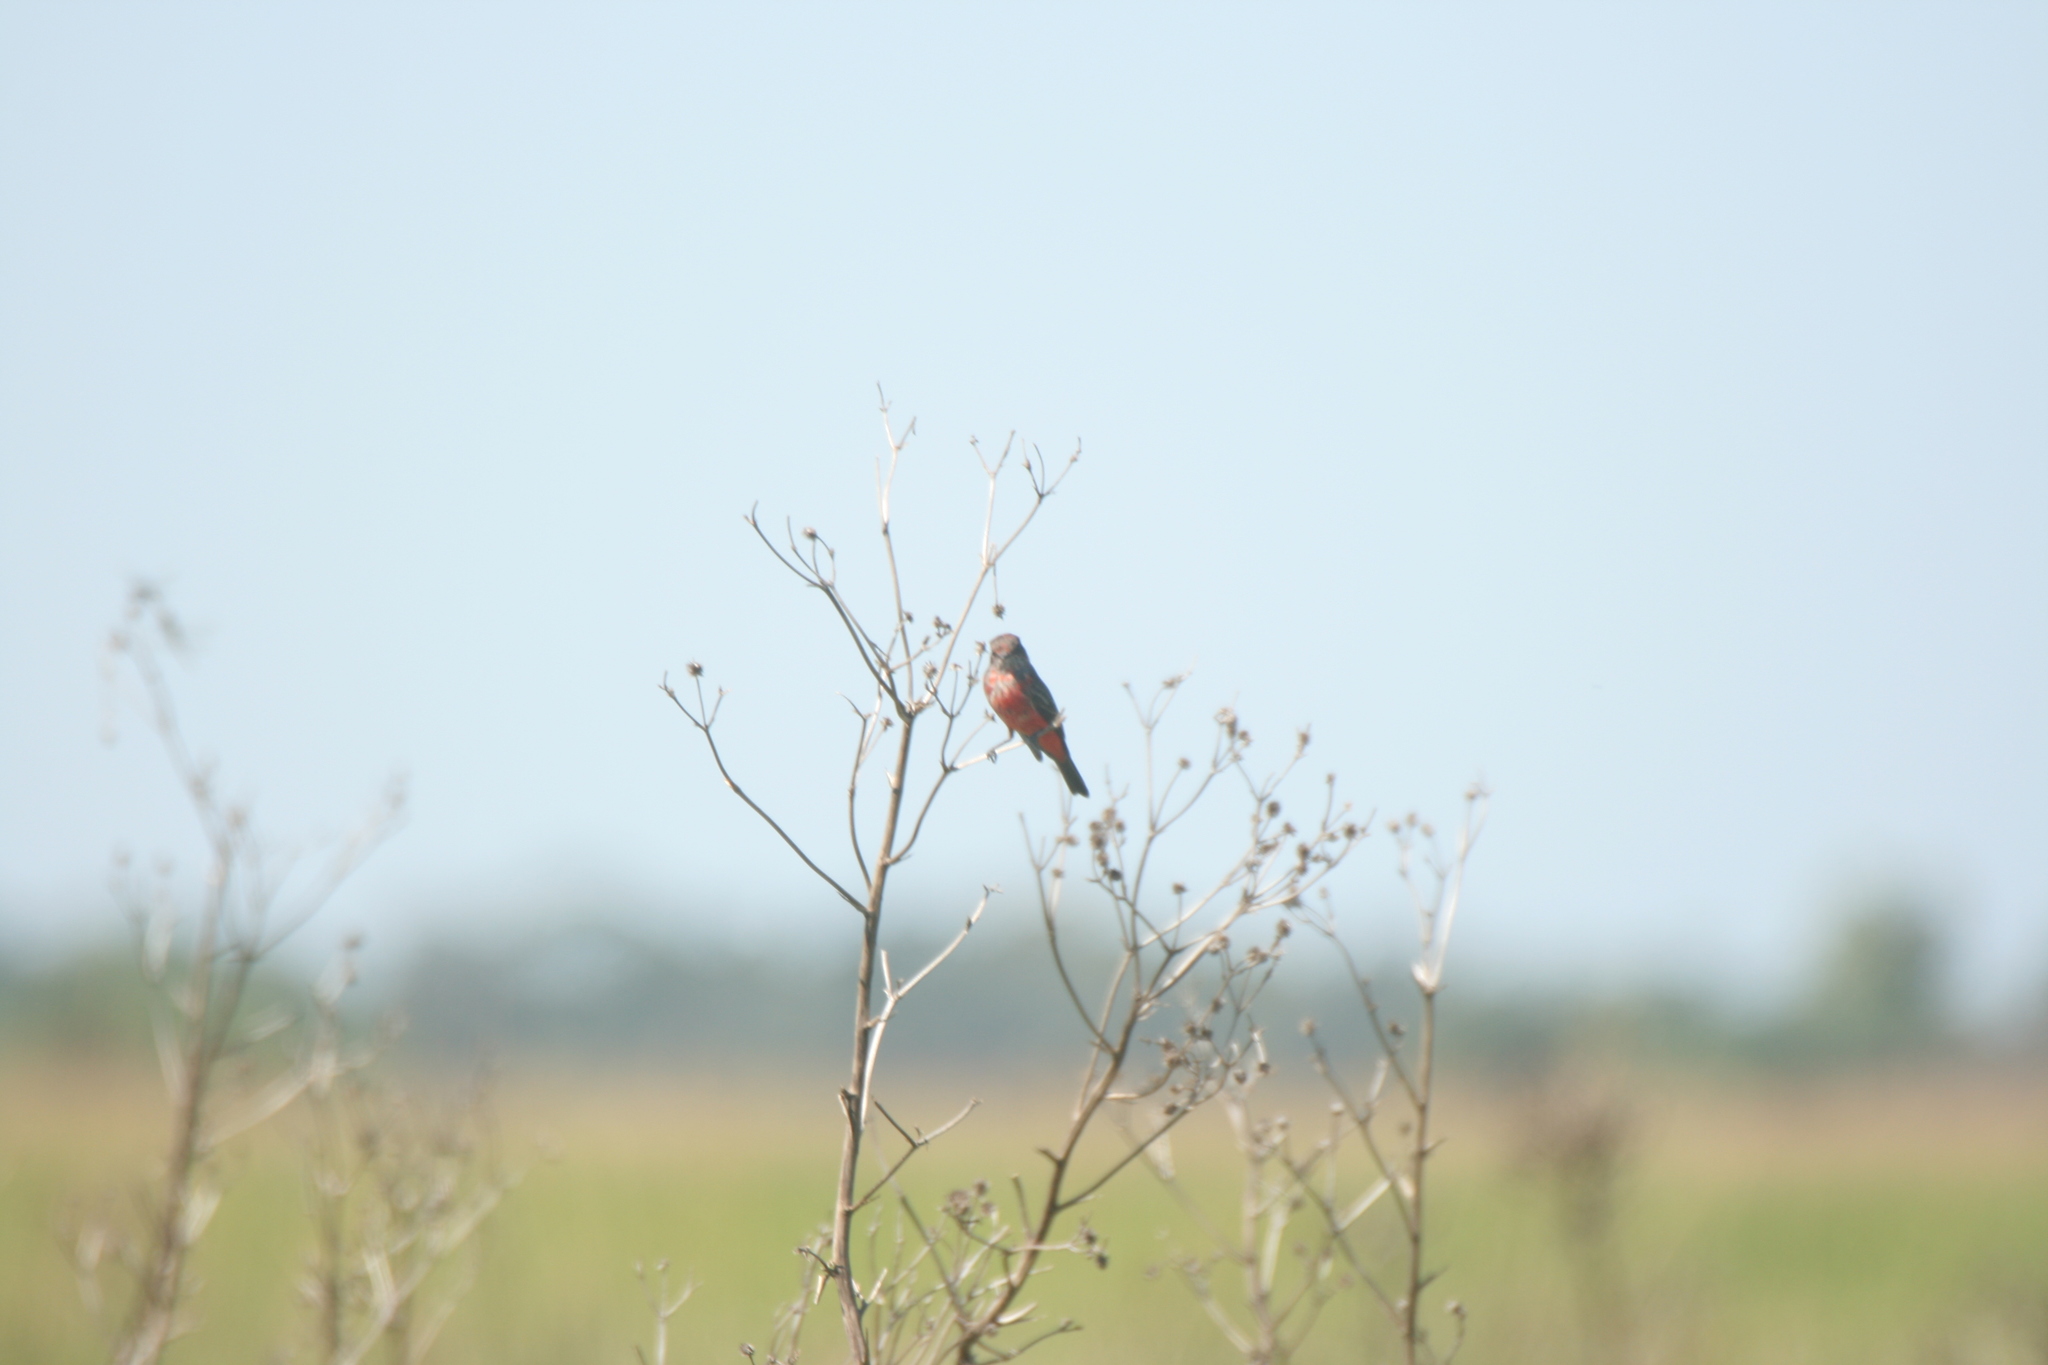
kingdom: Animalia
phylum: Chordata
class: Aves
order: Passeriformes
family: Tyrannidae
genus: Pyrocephalus
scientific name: Pyrocephalus rubinus
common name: Vermilion flycatcher
